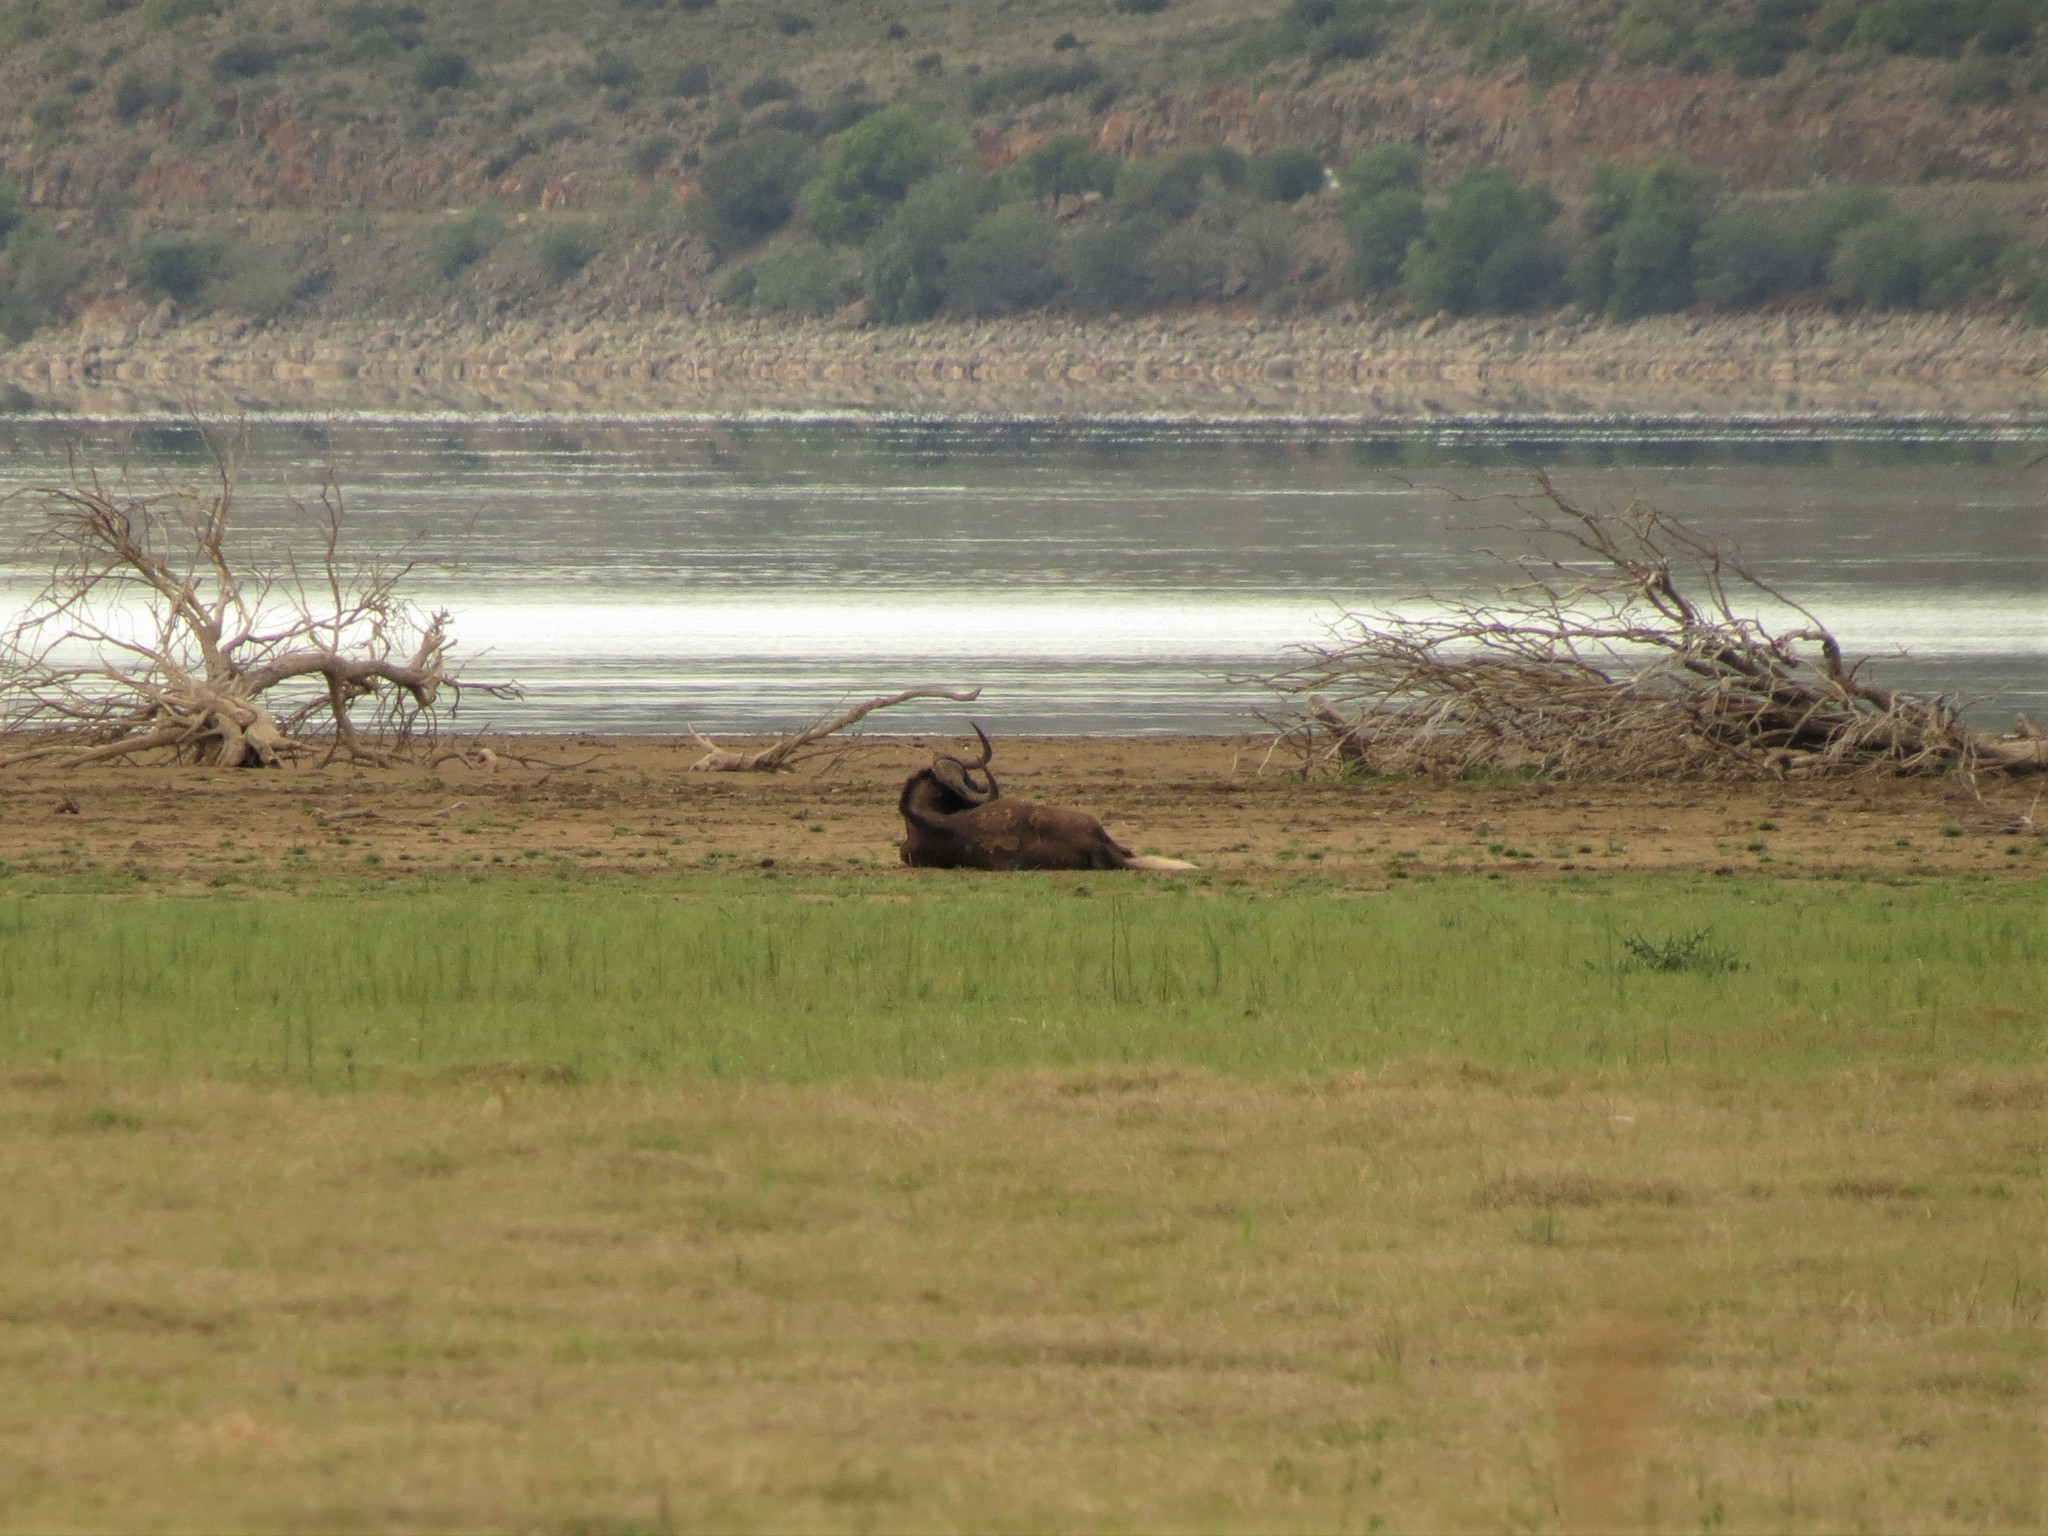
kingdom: Animalia
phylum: Chordata
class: Mammalia
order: Artiodactyla
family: Bovidae
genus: Connochaetes
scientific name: Connochaetes gnou
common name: Black wildebeest
